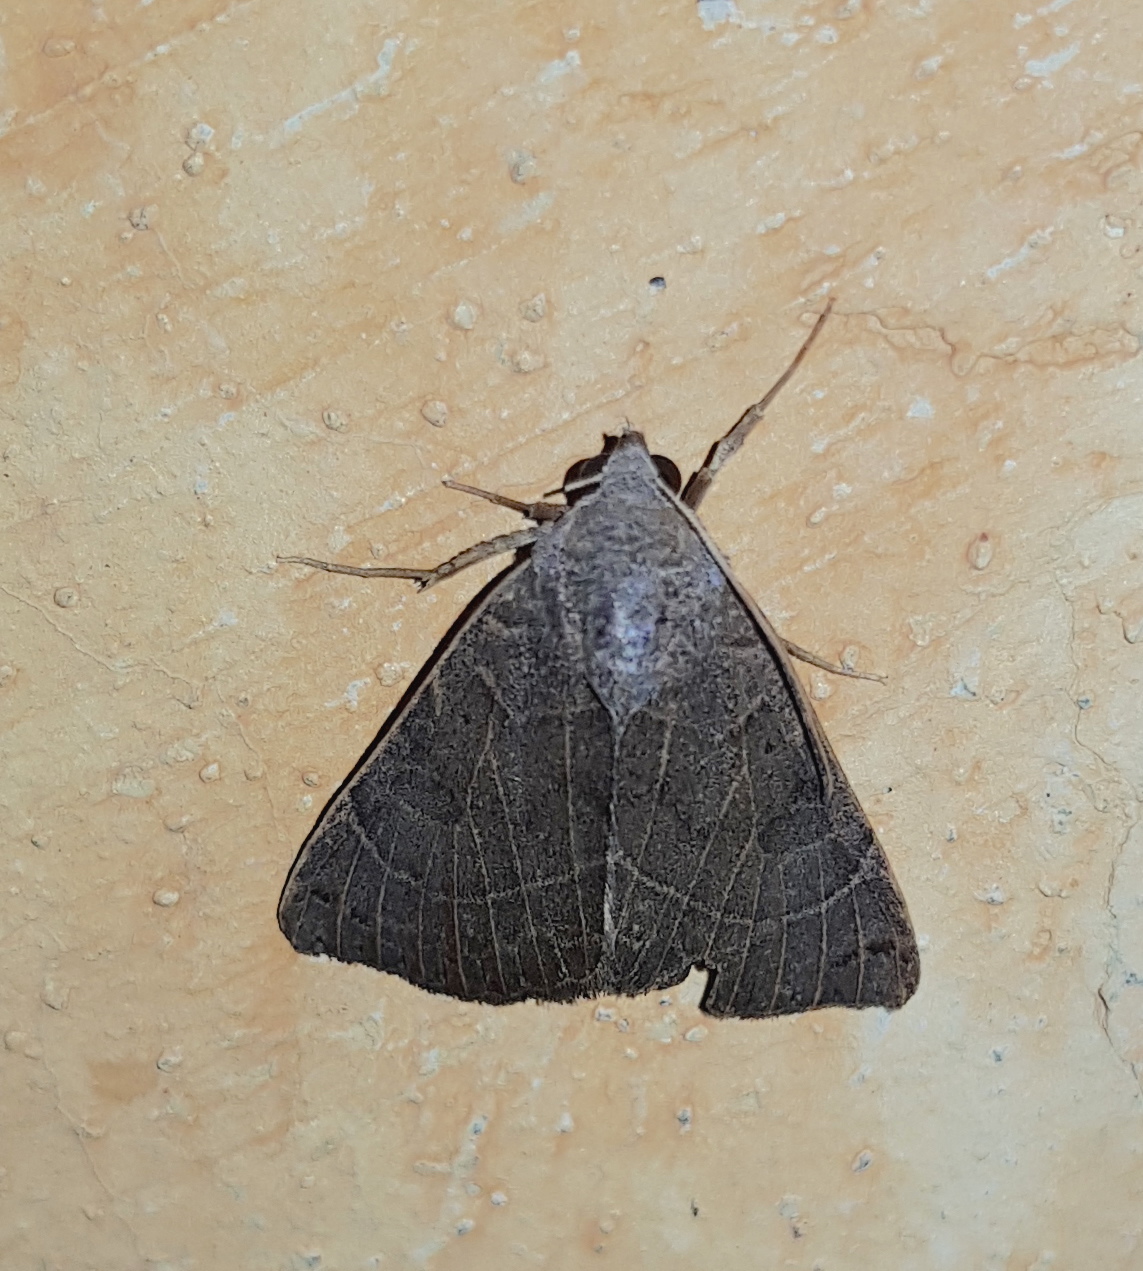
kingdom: Animalia
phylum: Arthropoda
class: Insecta
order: Lepidoptera
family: Erebidae
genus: Isogona
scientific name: Isogona scindens
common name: Owlet moth
